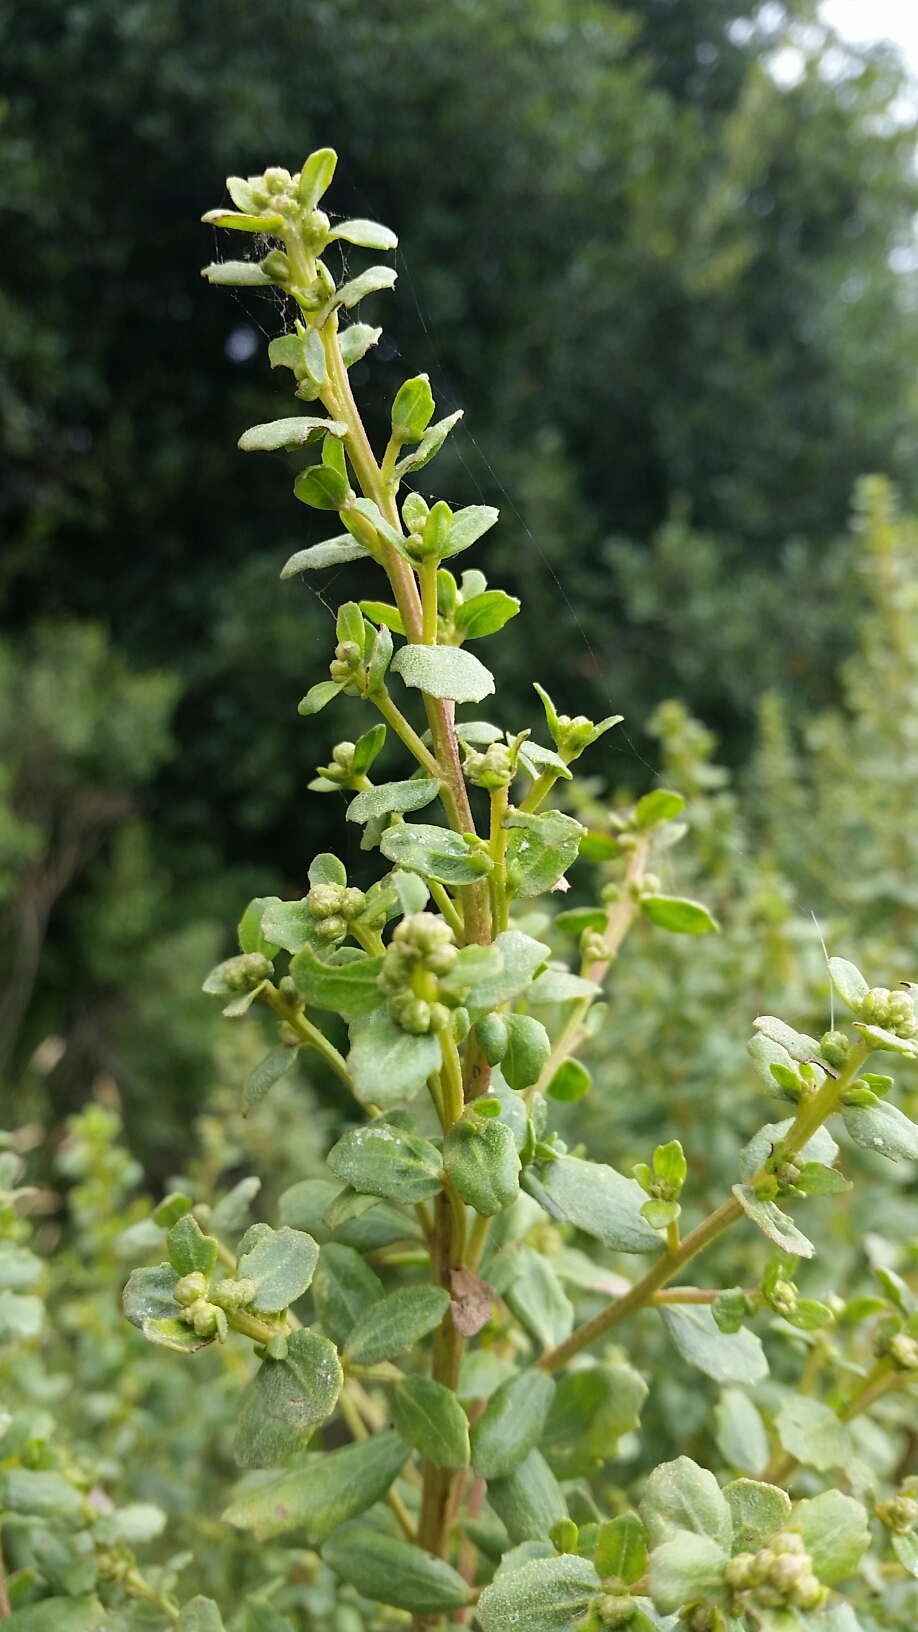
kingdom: Plantae
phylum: Tracheophyta
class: Magnoliopsida
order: Asterales
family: Asteraceae
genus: Baccharis
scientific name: Baccharis pilularis
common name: Coyotebrush
